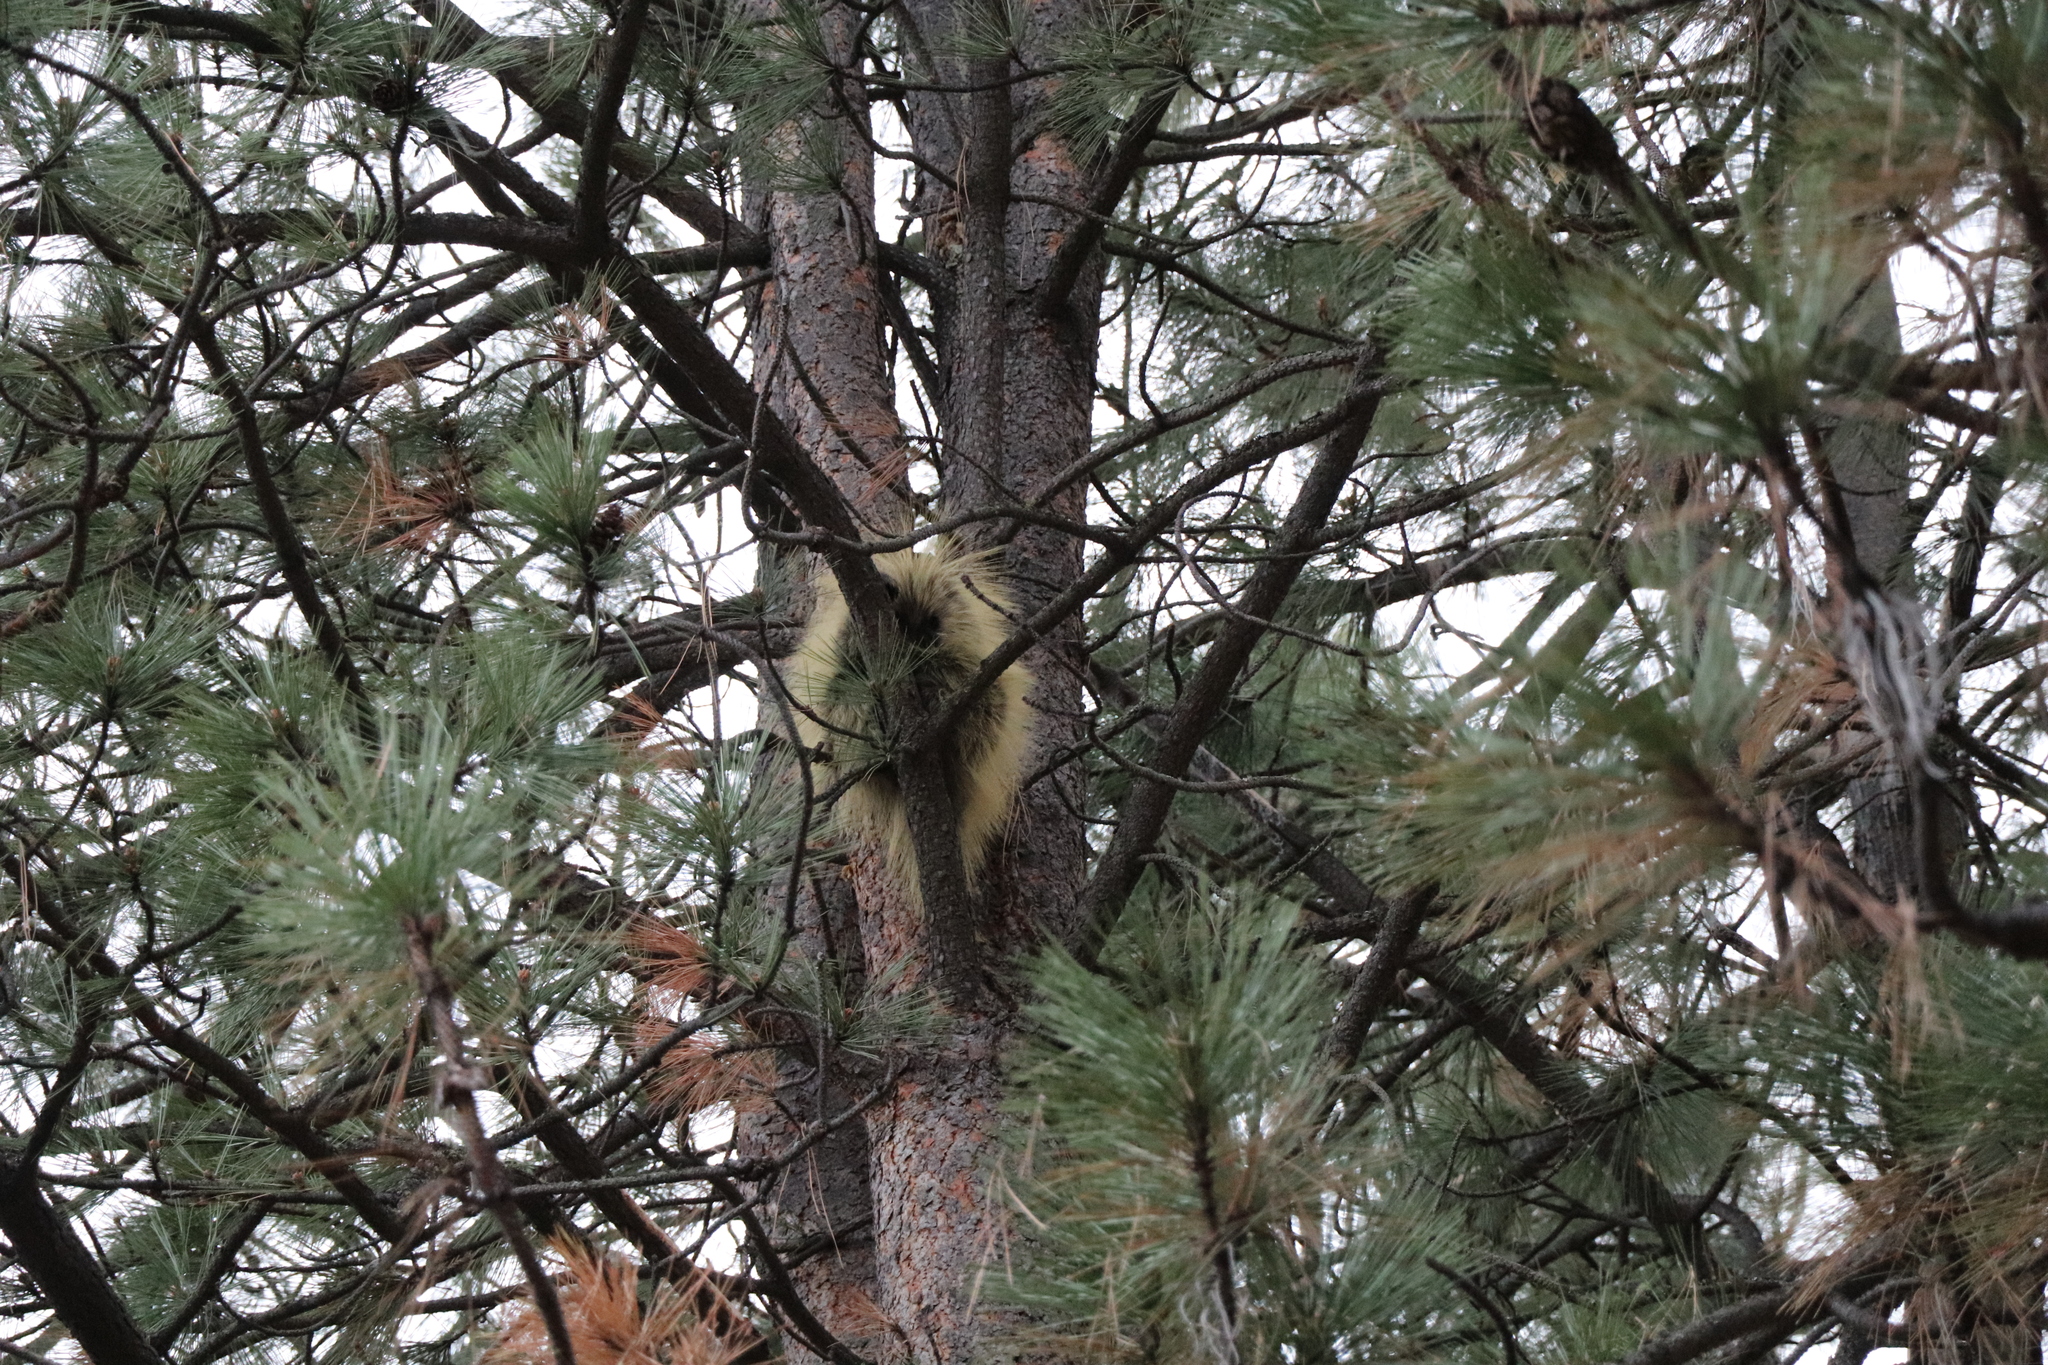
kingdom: Animalia
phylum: Chordata
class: Mammalia
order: Rodentia
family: Erethizontidae
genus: Erethizon
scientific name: Erethizon dorsatus
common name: North american porcupine
